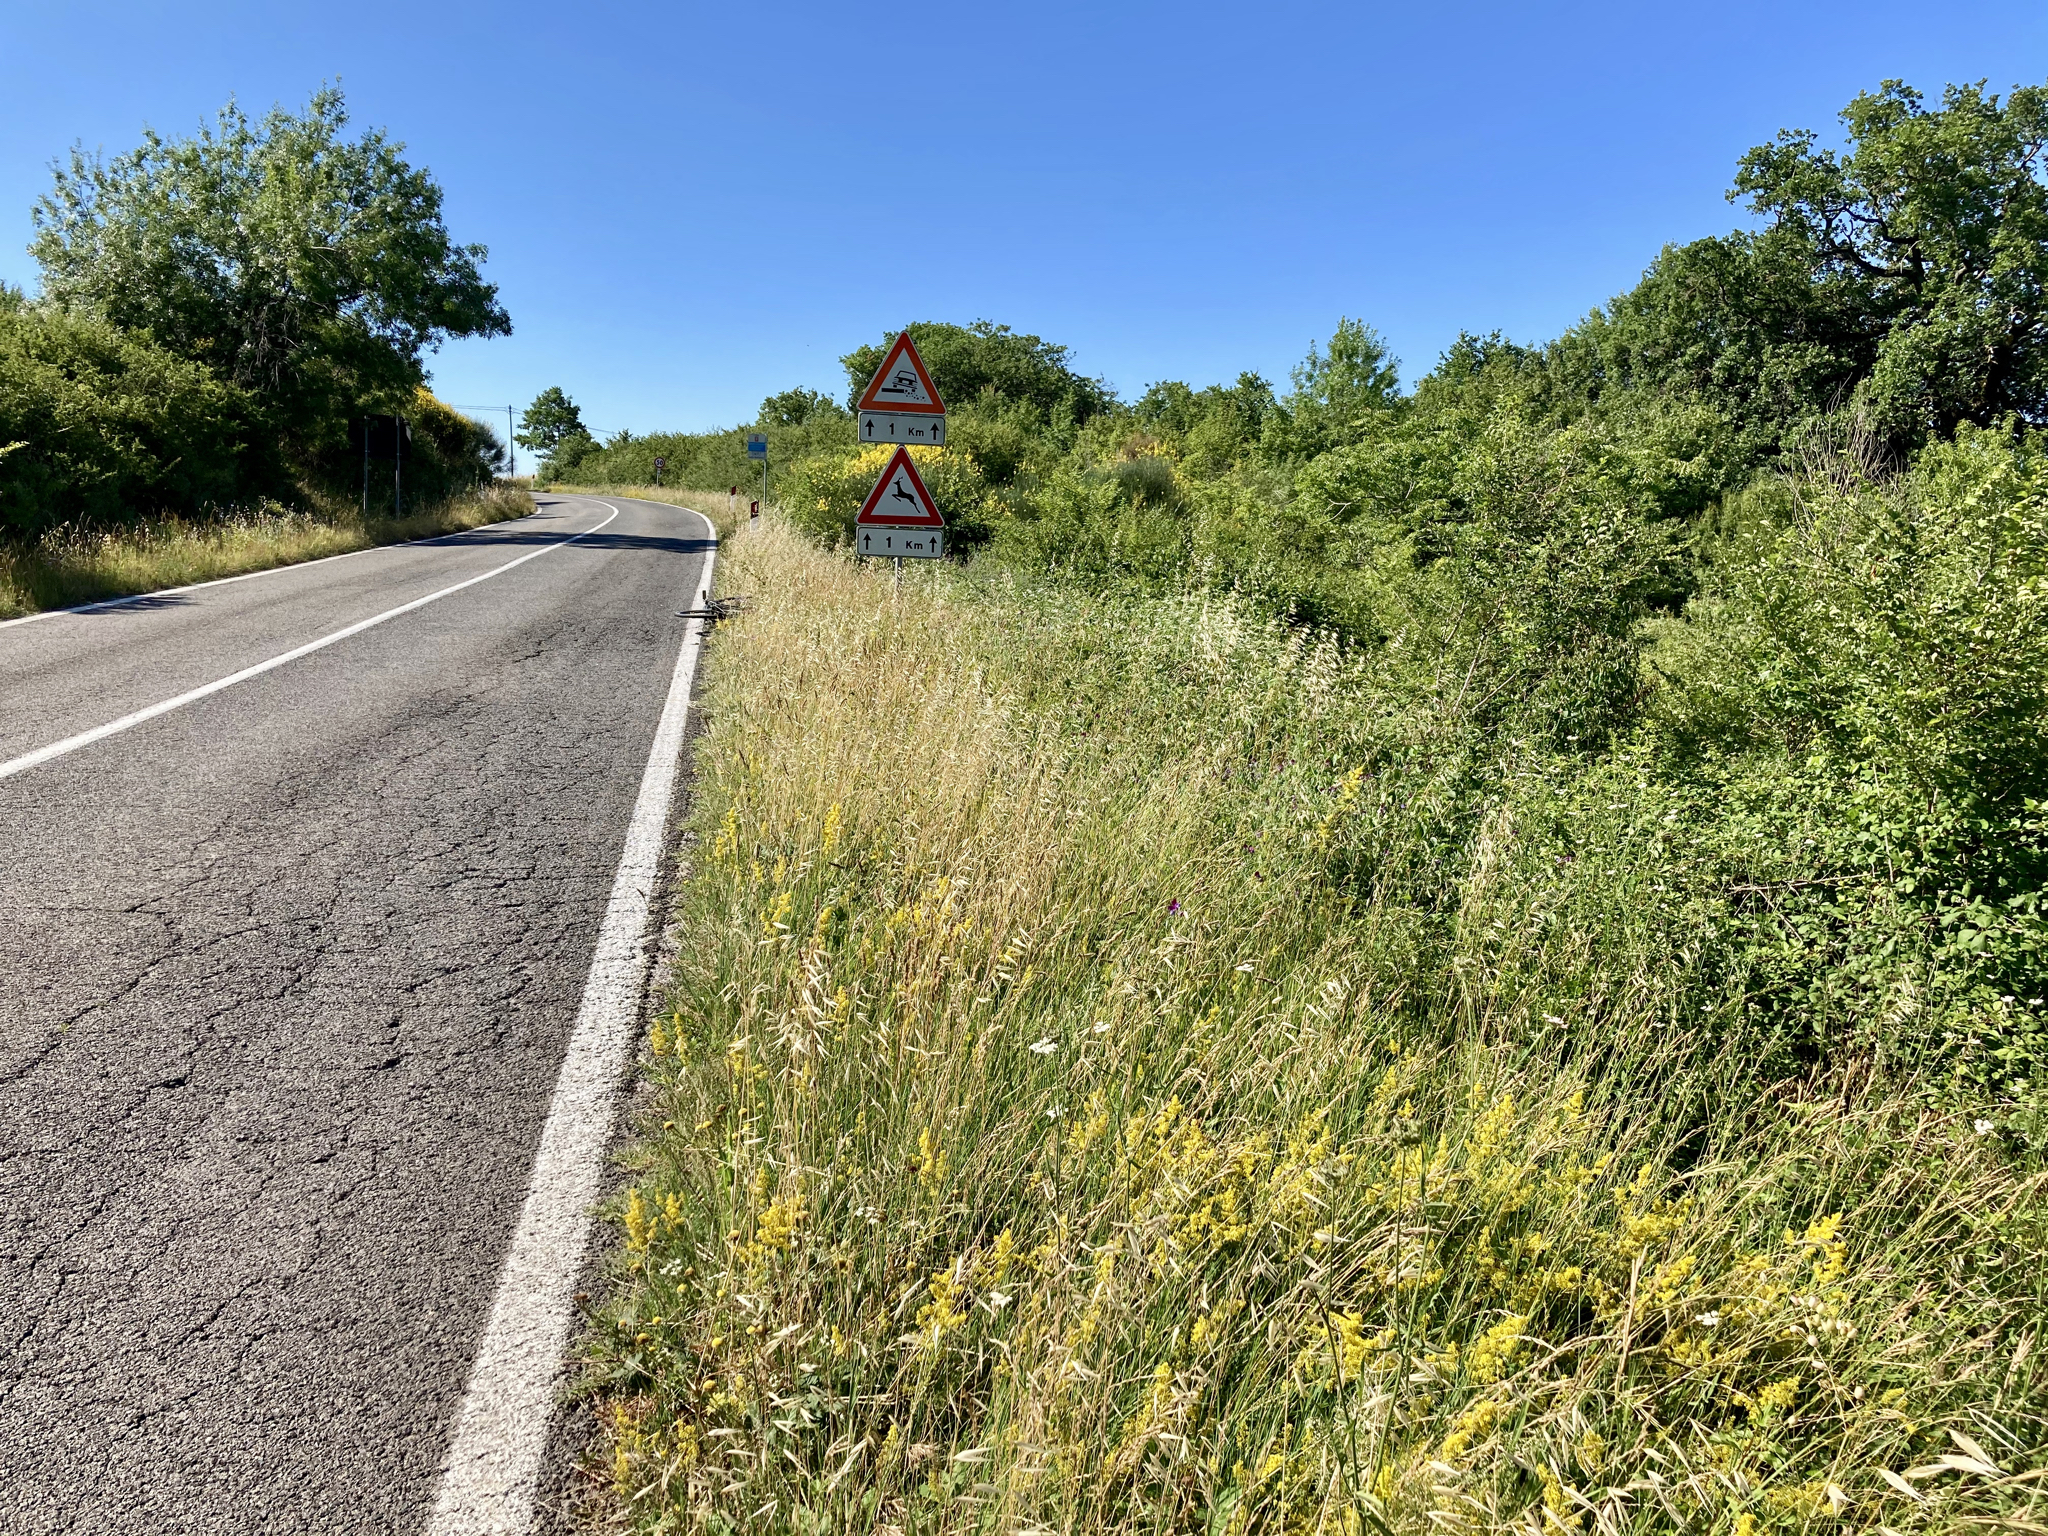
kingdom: Plantae
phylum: Tracheophyta
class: Liliopsida
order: Asparagales
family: Orchidaceae
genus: Anacamptis
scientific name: Anacamptis pyramidalis
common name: Pyramidal orchid
